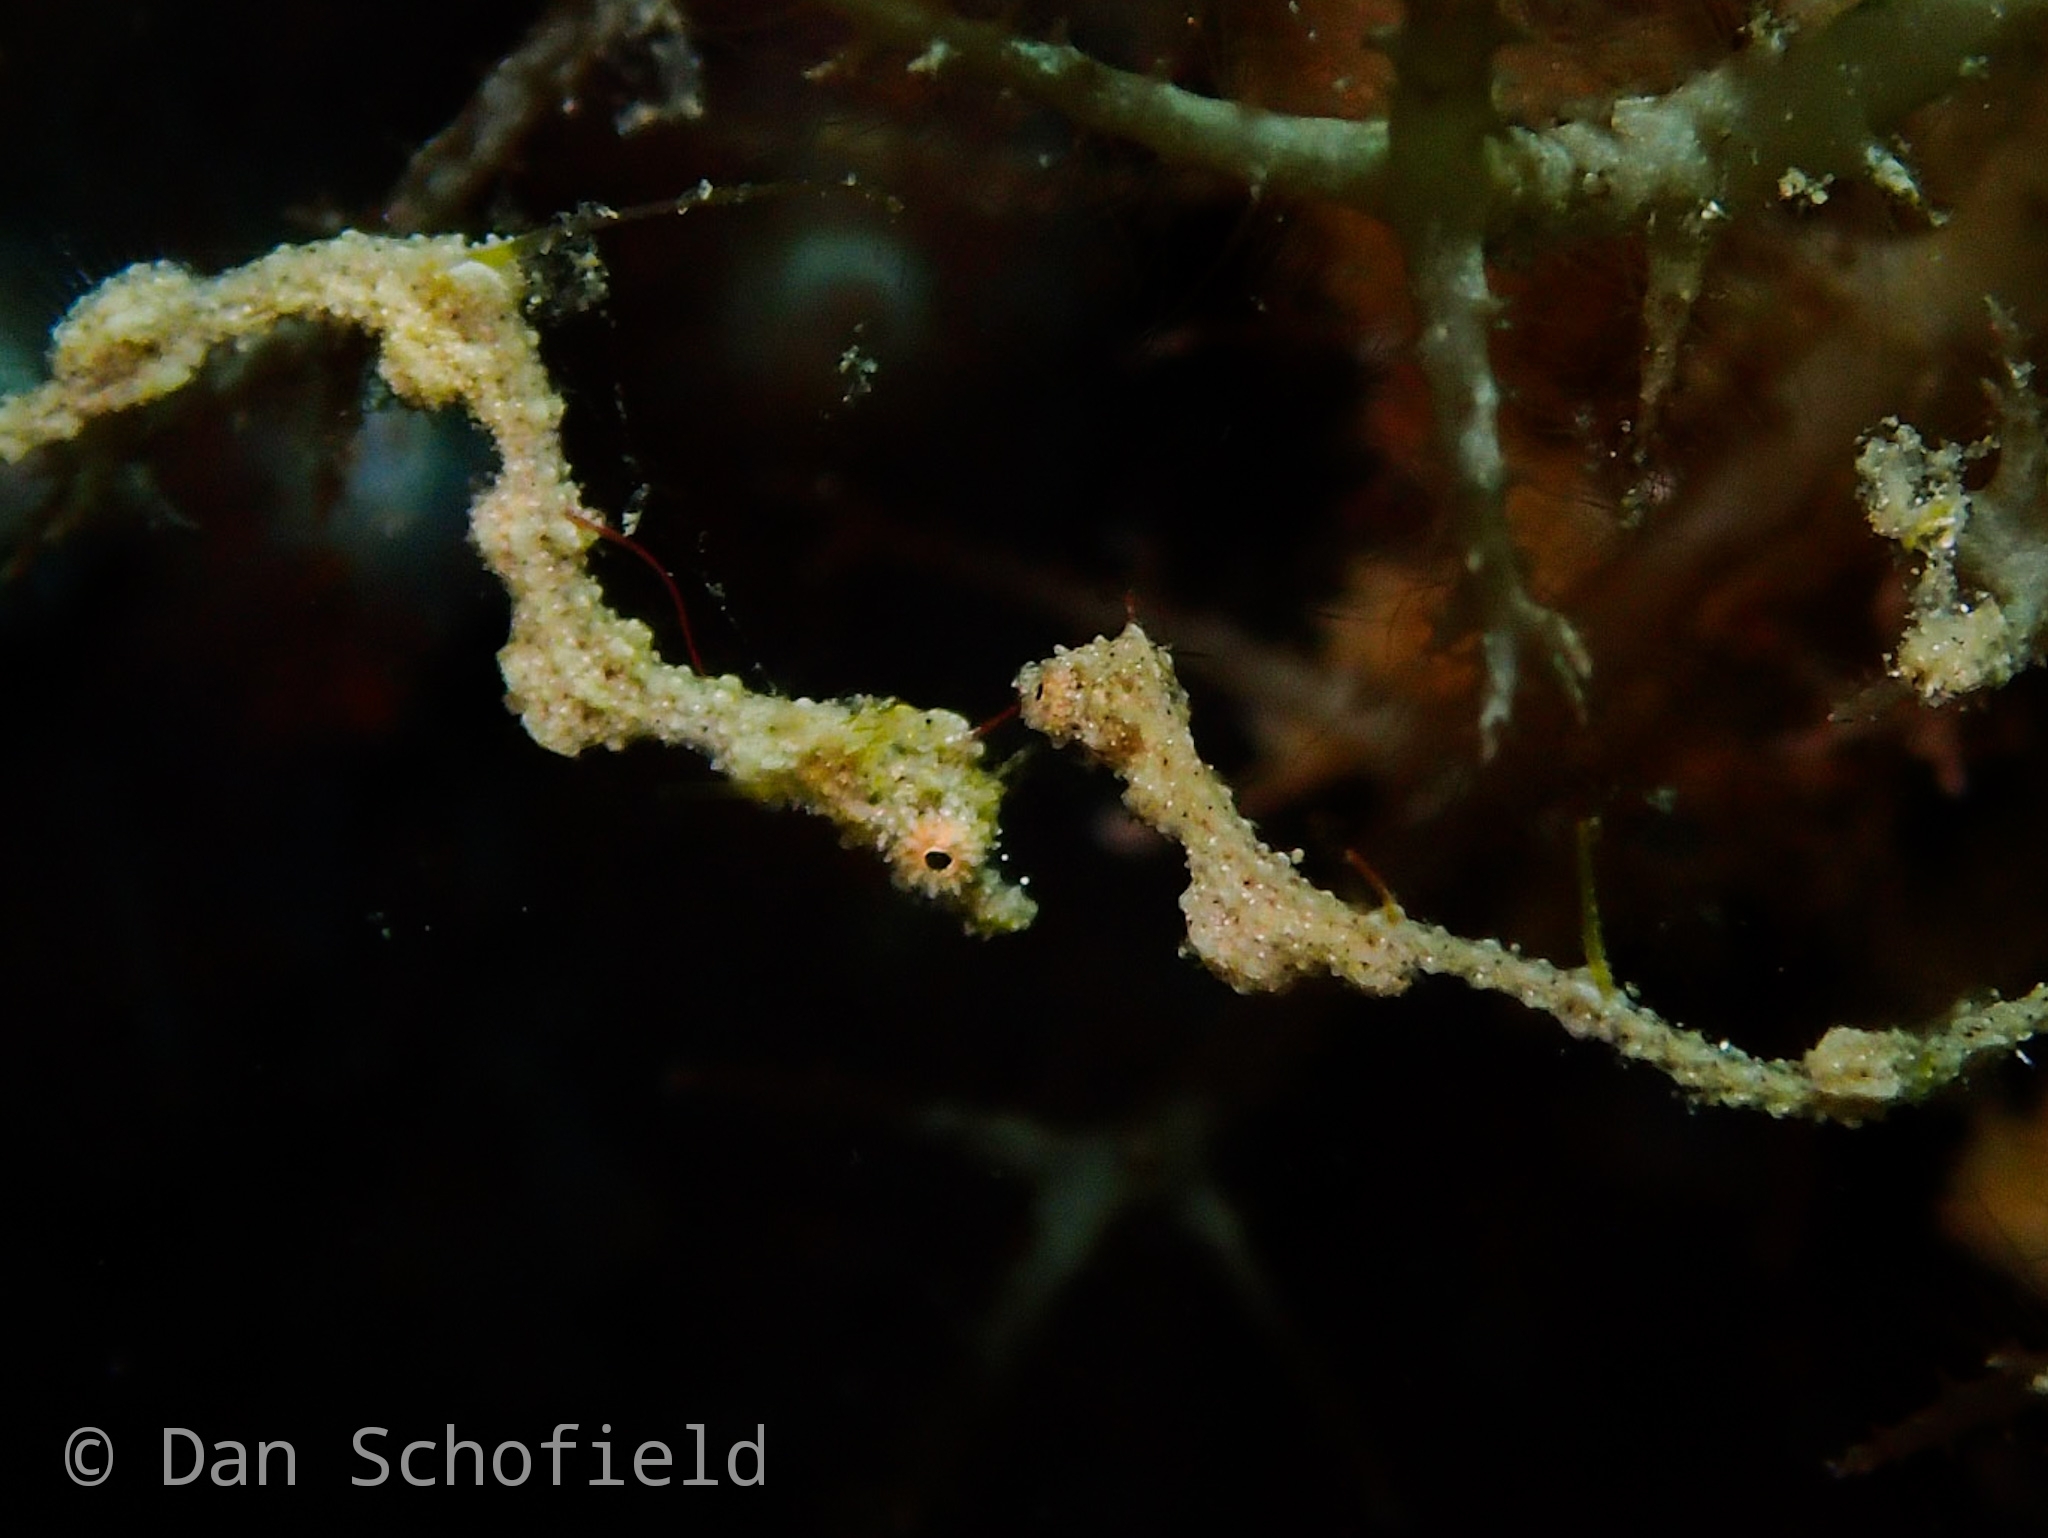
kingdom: Animalia
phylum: Chordata
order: Syngnathiformes
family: Syngnathidae
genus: Kyonemichthys
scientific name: Kyonemichthys rumengani
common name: Thread pipefish
